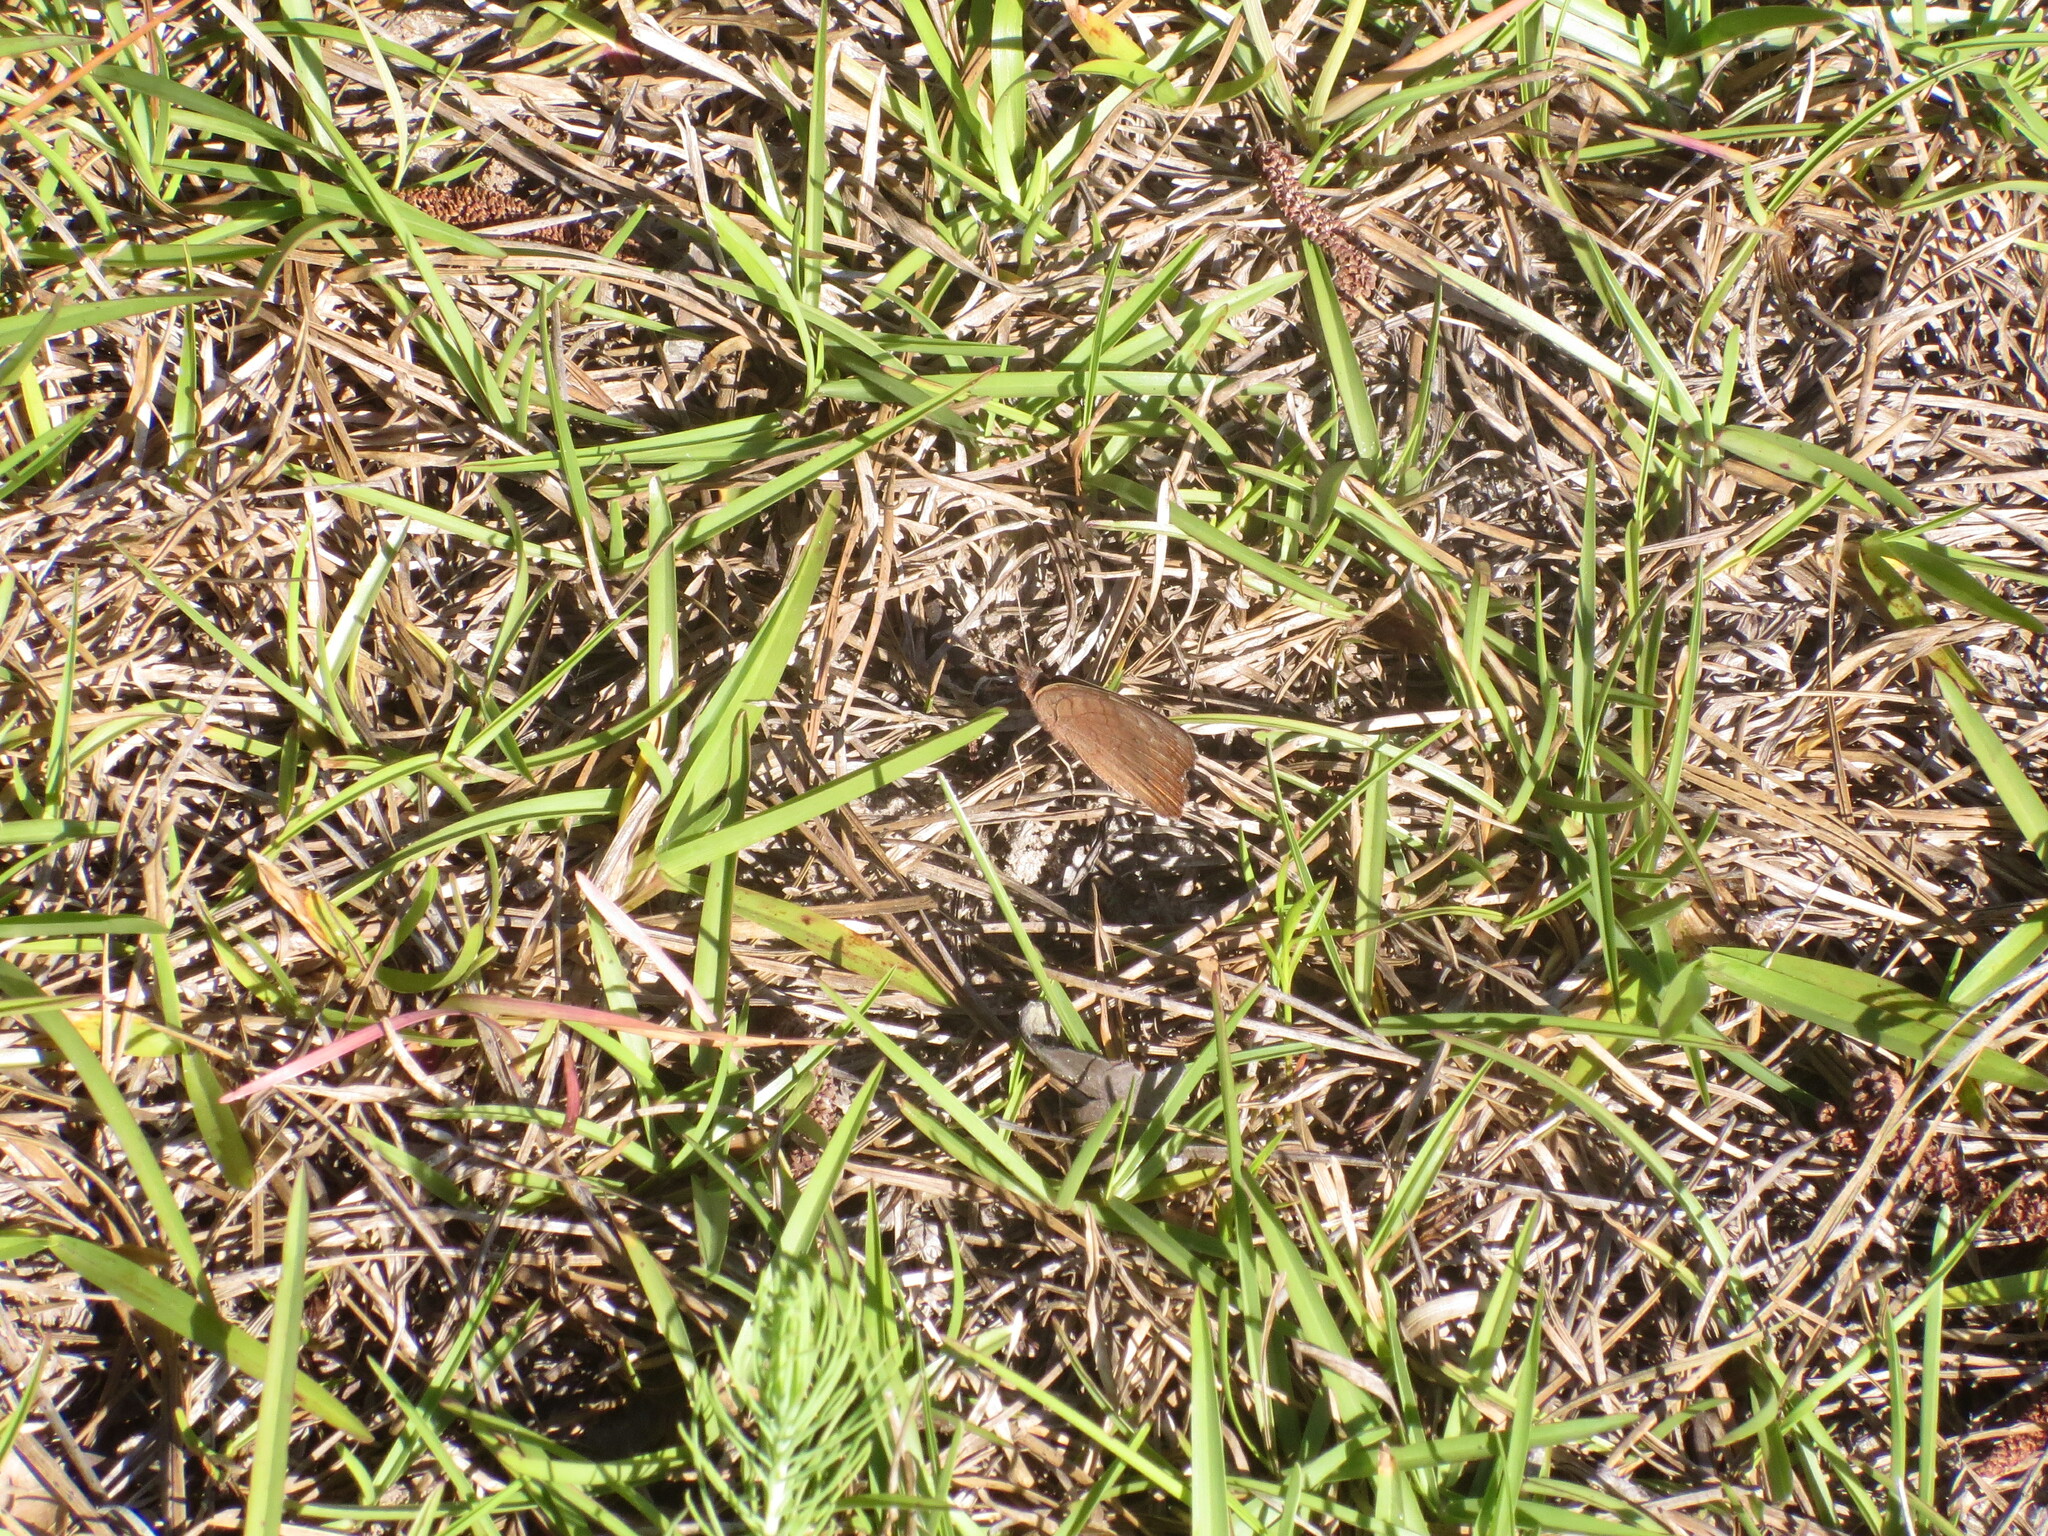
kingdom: Animalia
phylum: Arthropoda
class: Insecta
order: Lepidoptera
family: Nymphalidae
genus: Junonia
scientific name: Junonia coenia
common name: Common buckeye
